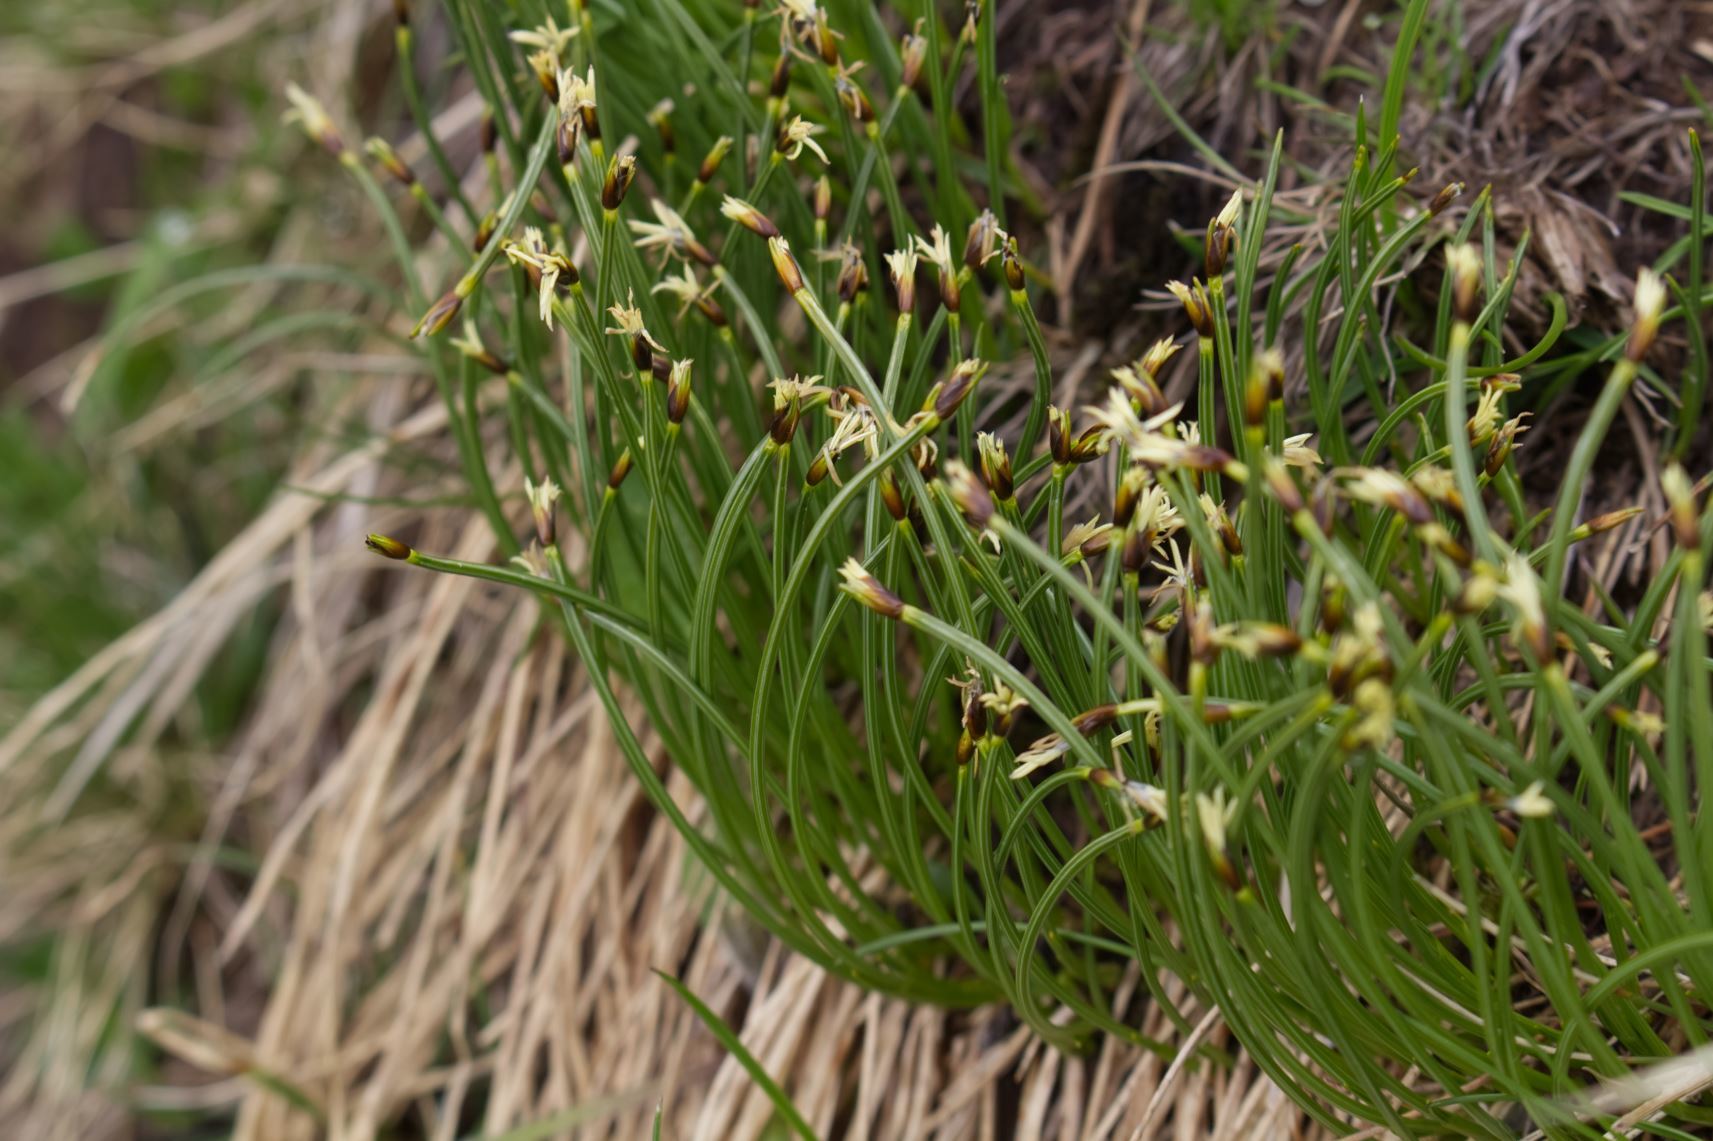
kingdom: Plantae
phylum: Tracheophyta
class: Liliopsida
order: Poales
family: Cyperaceae
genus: Trichophorum
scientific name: Trichophorum cespitosum
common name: Cespitose bulrush
